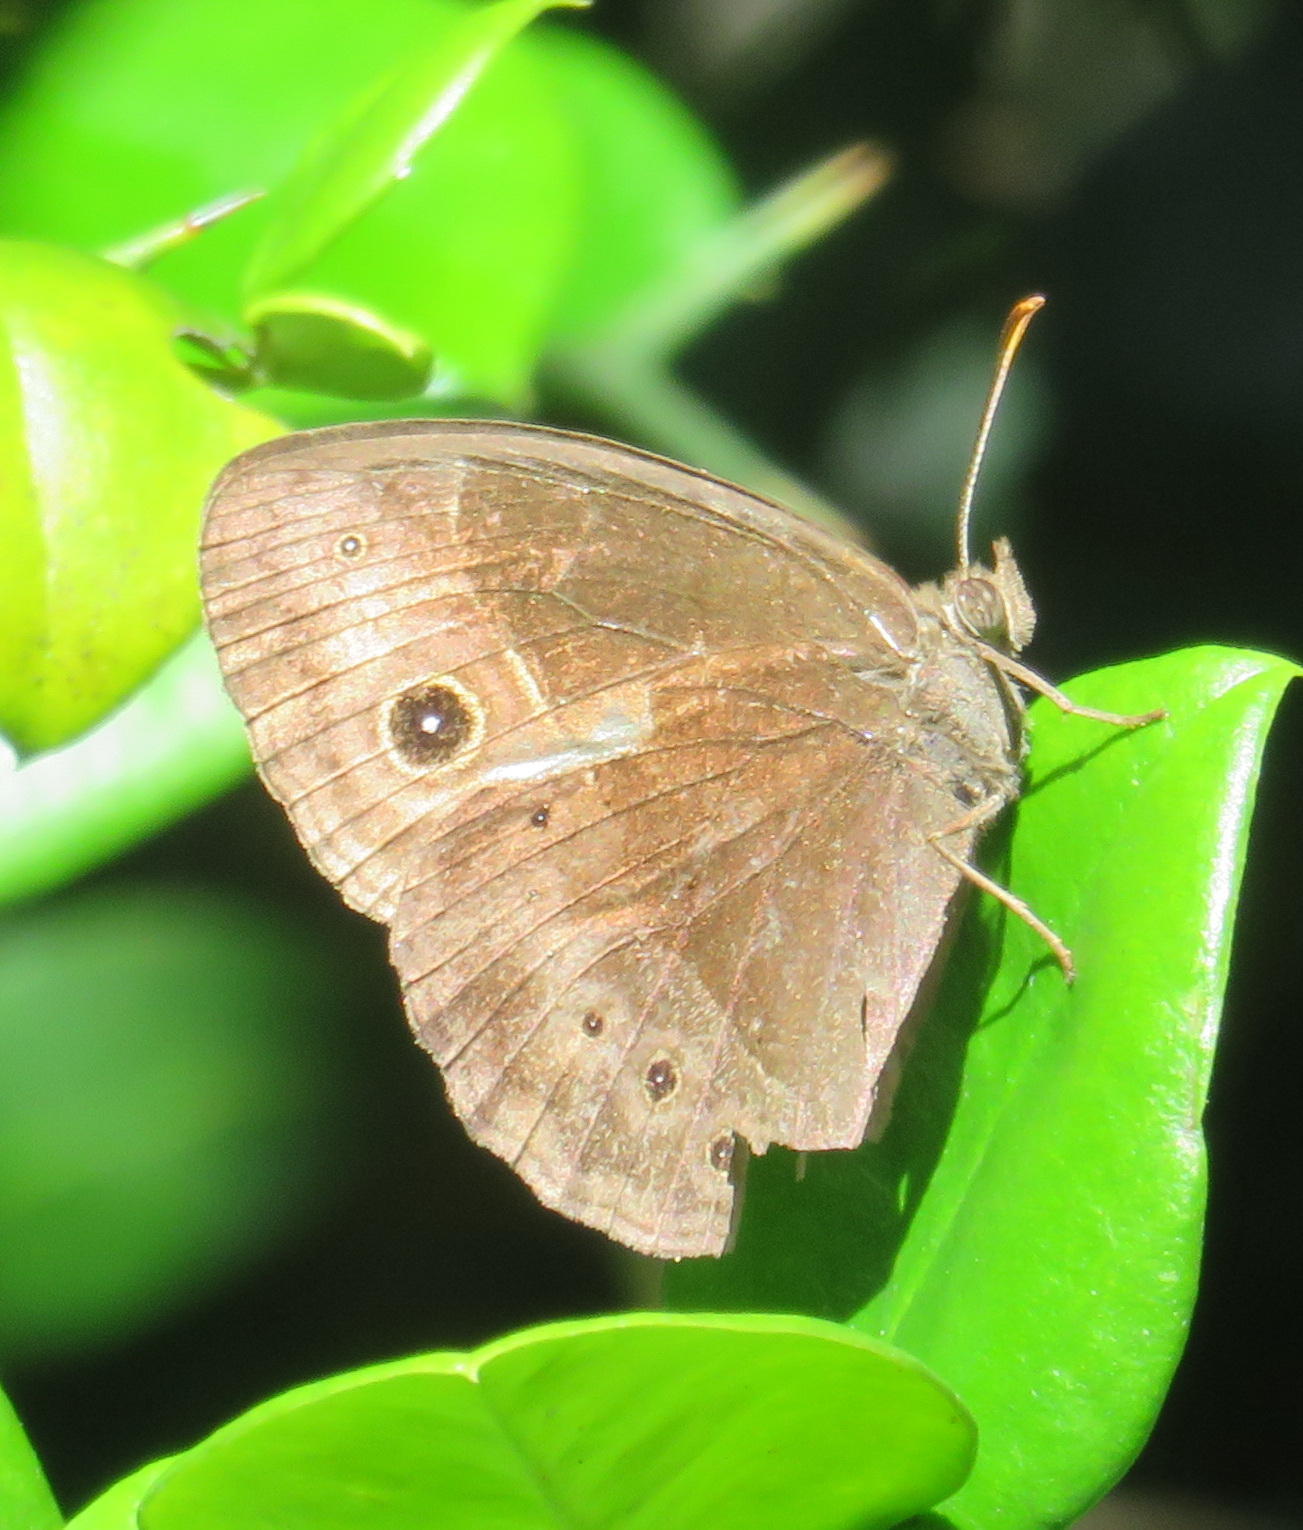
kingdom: Animalia
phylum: Arthropoda
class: Insecta
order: Lepidoptera
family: Nymphalidae
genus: Mycalesis
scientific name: Mycalesis rhacotis
